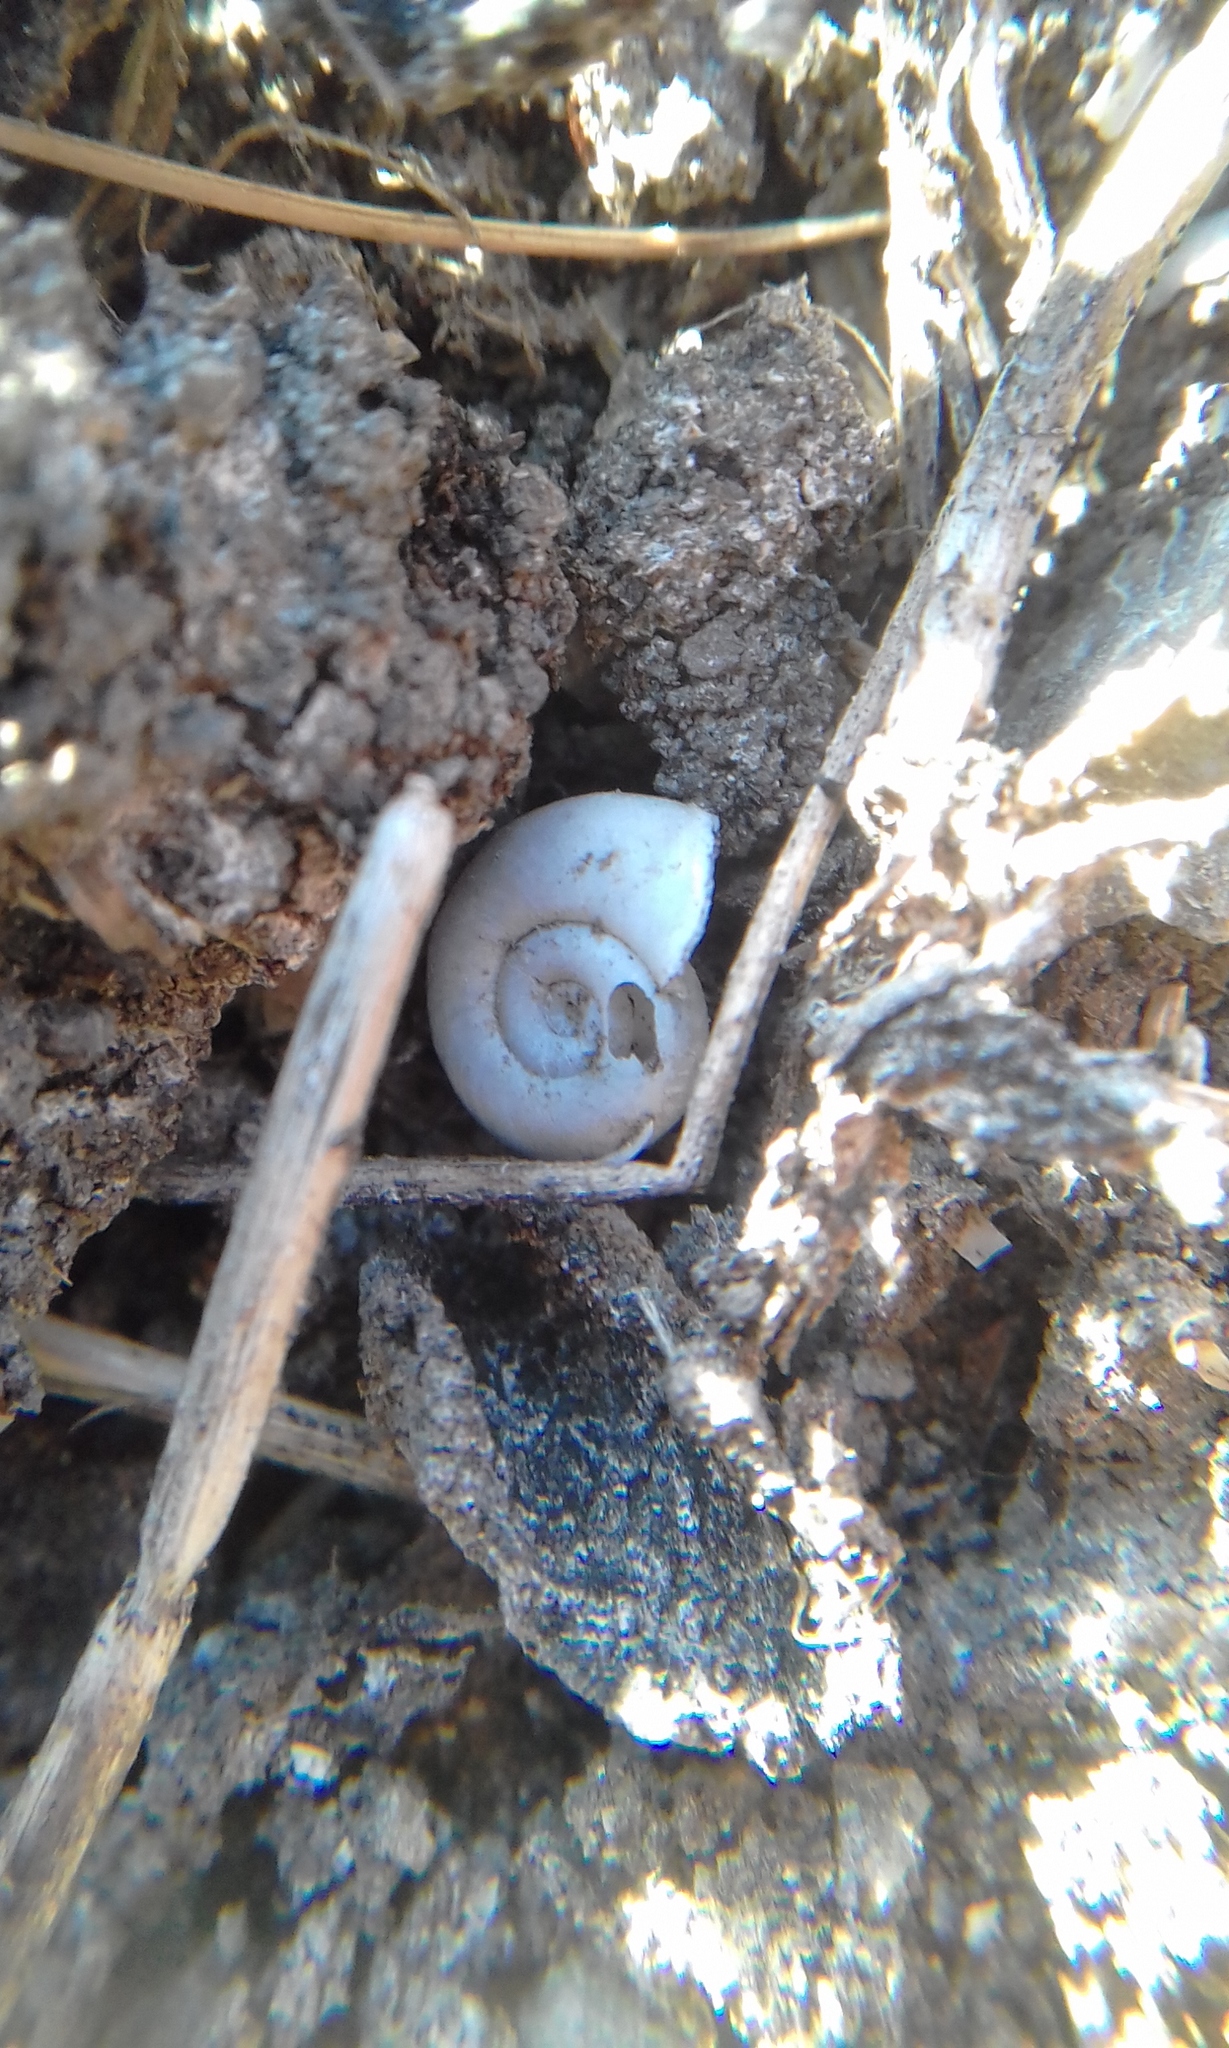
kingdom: Animalia
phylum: Mollusca
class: Gastropoda
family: Planorbidae
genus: Biomphalaria
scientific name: Biomphalaria peregrina
